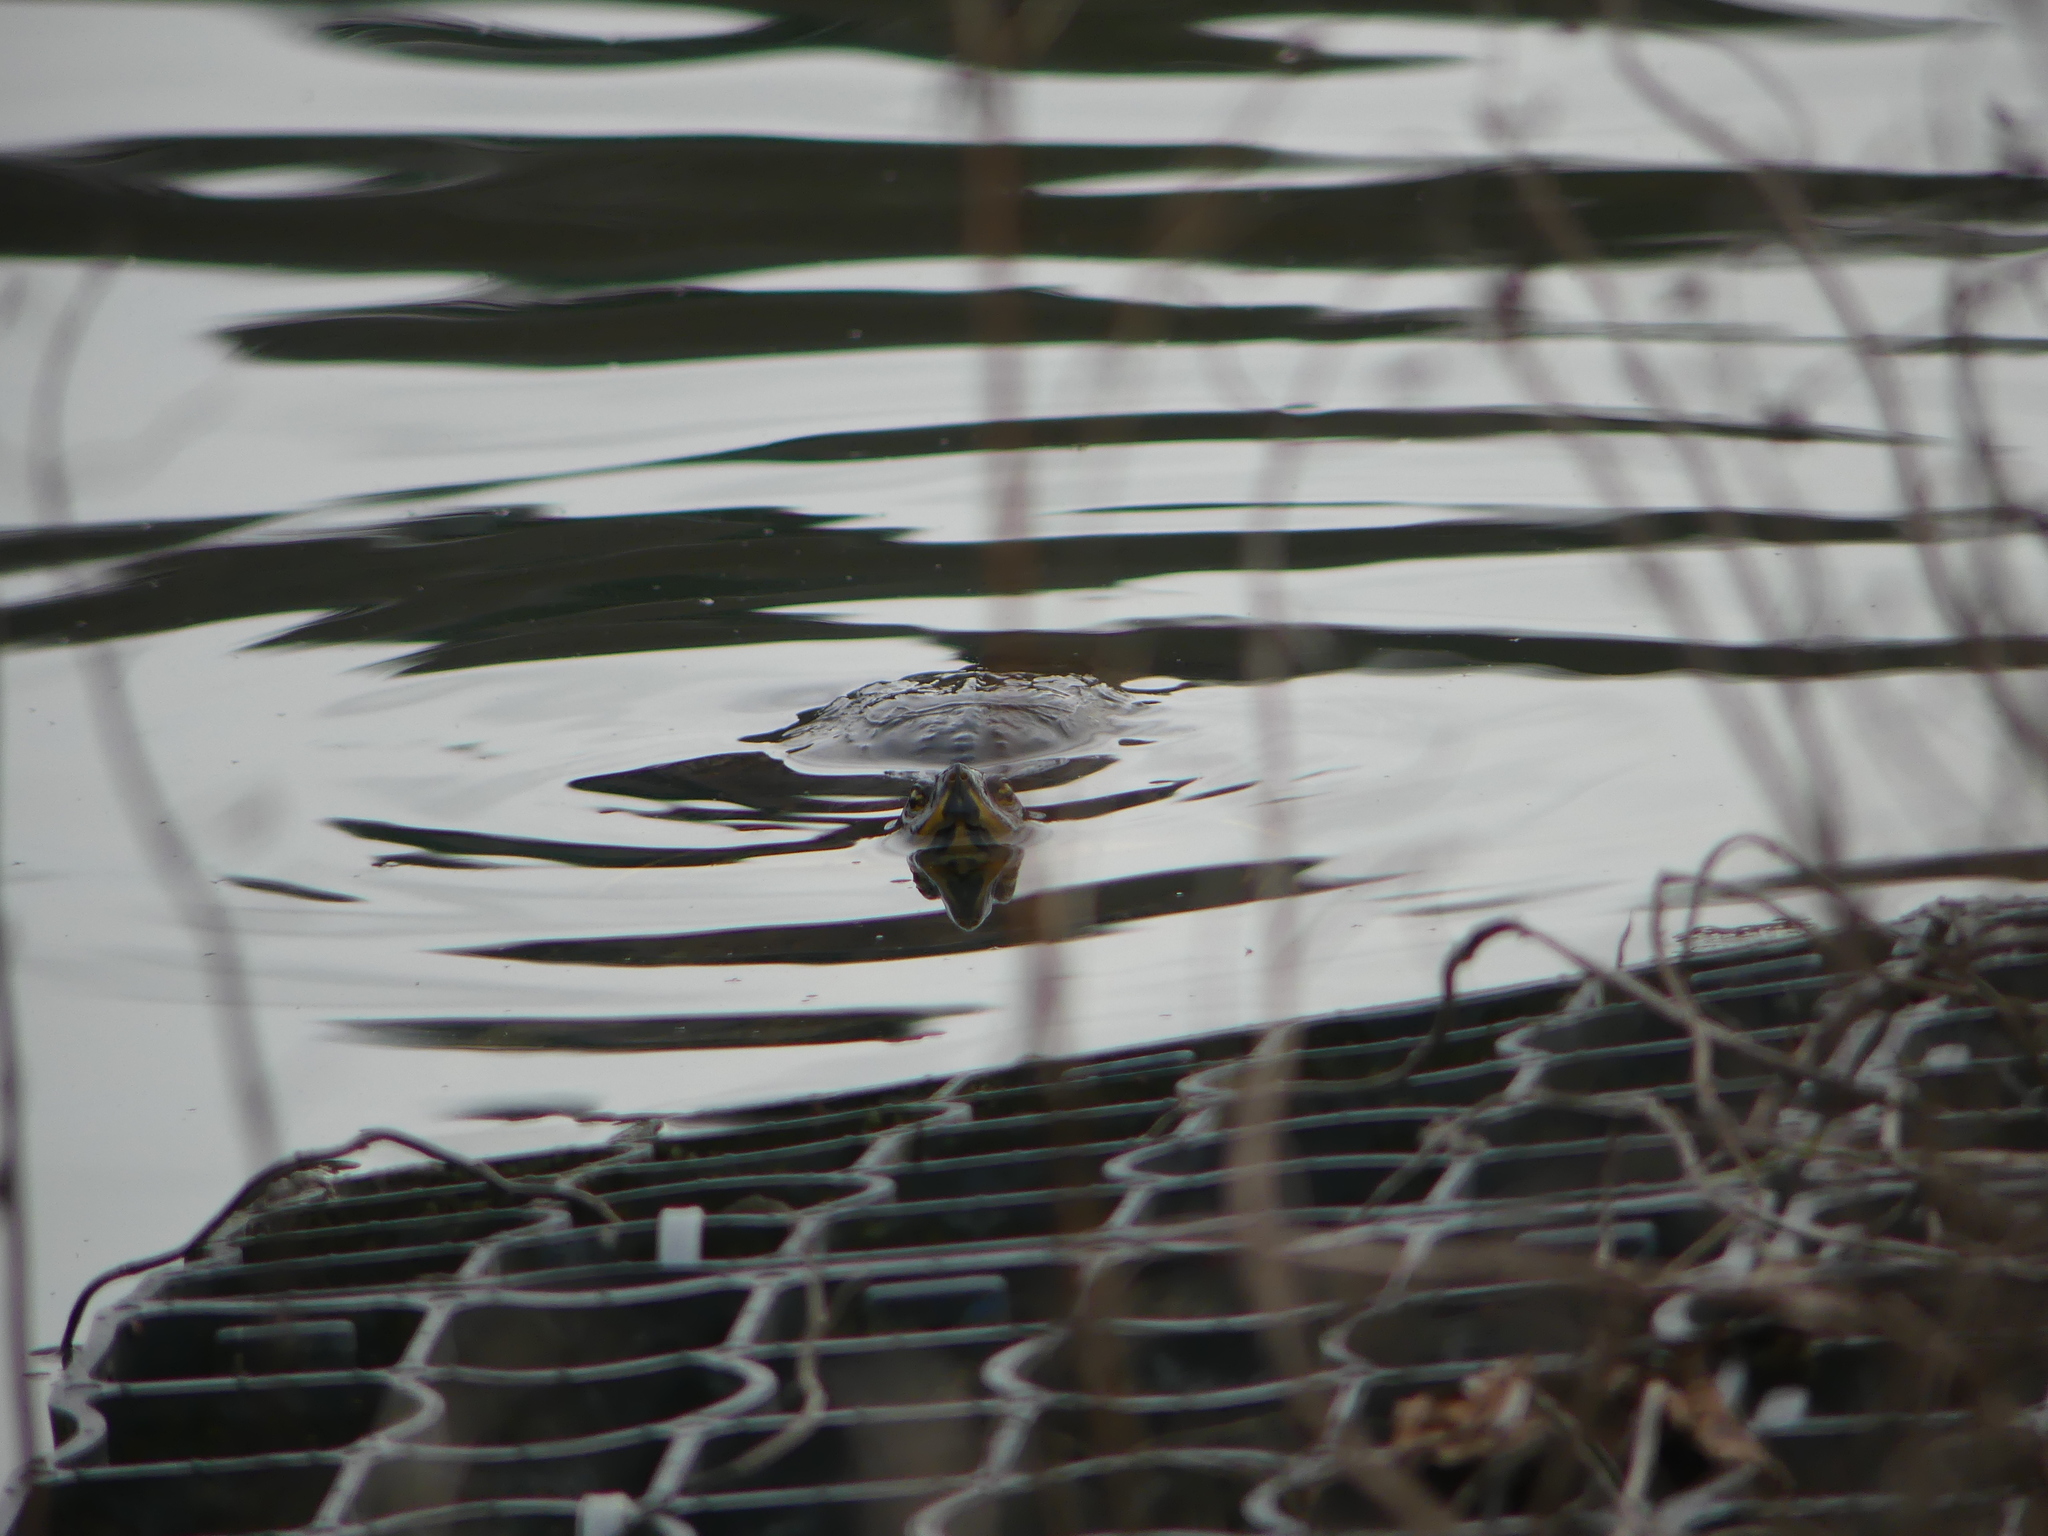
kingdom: Animalia
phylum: Chordata
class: Testudines
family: Emydidae
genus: Trachemys
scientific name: Trachemys scripta
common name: Slider
